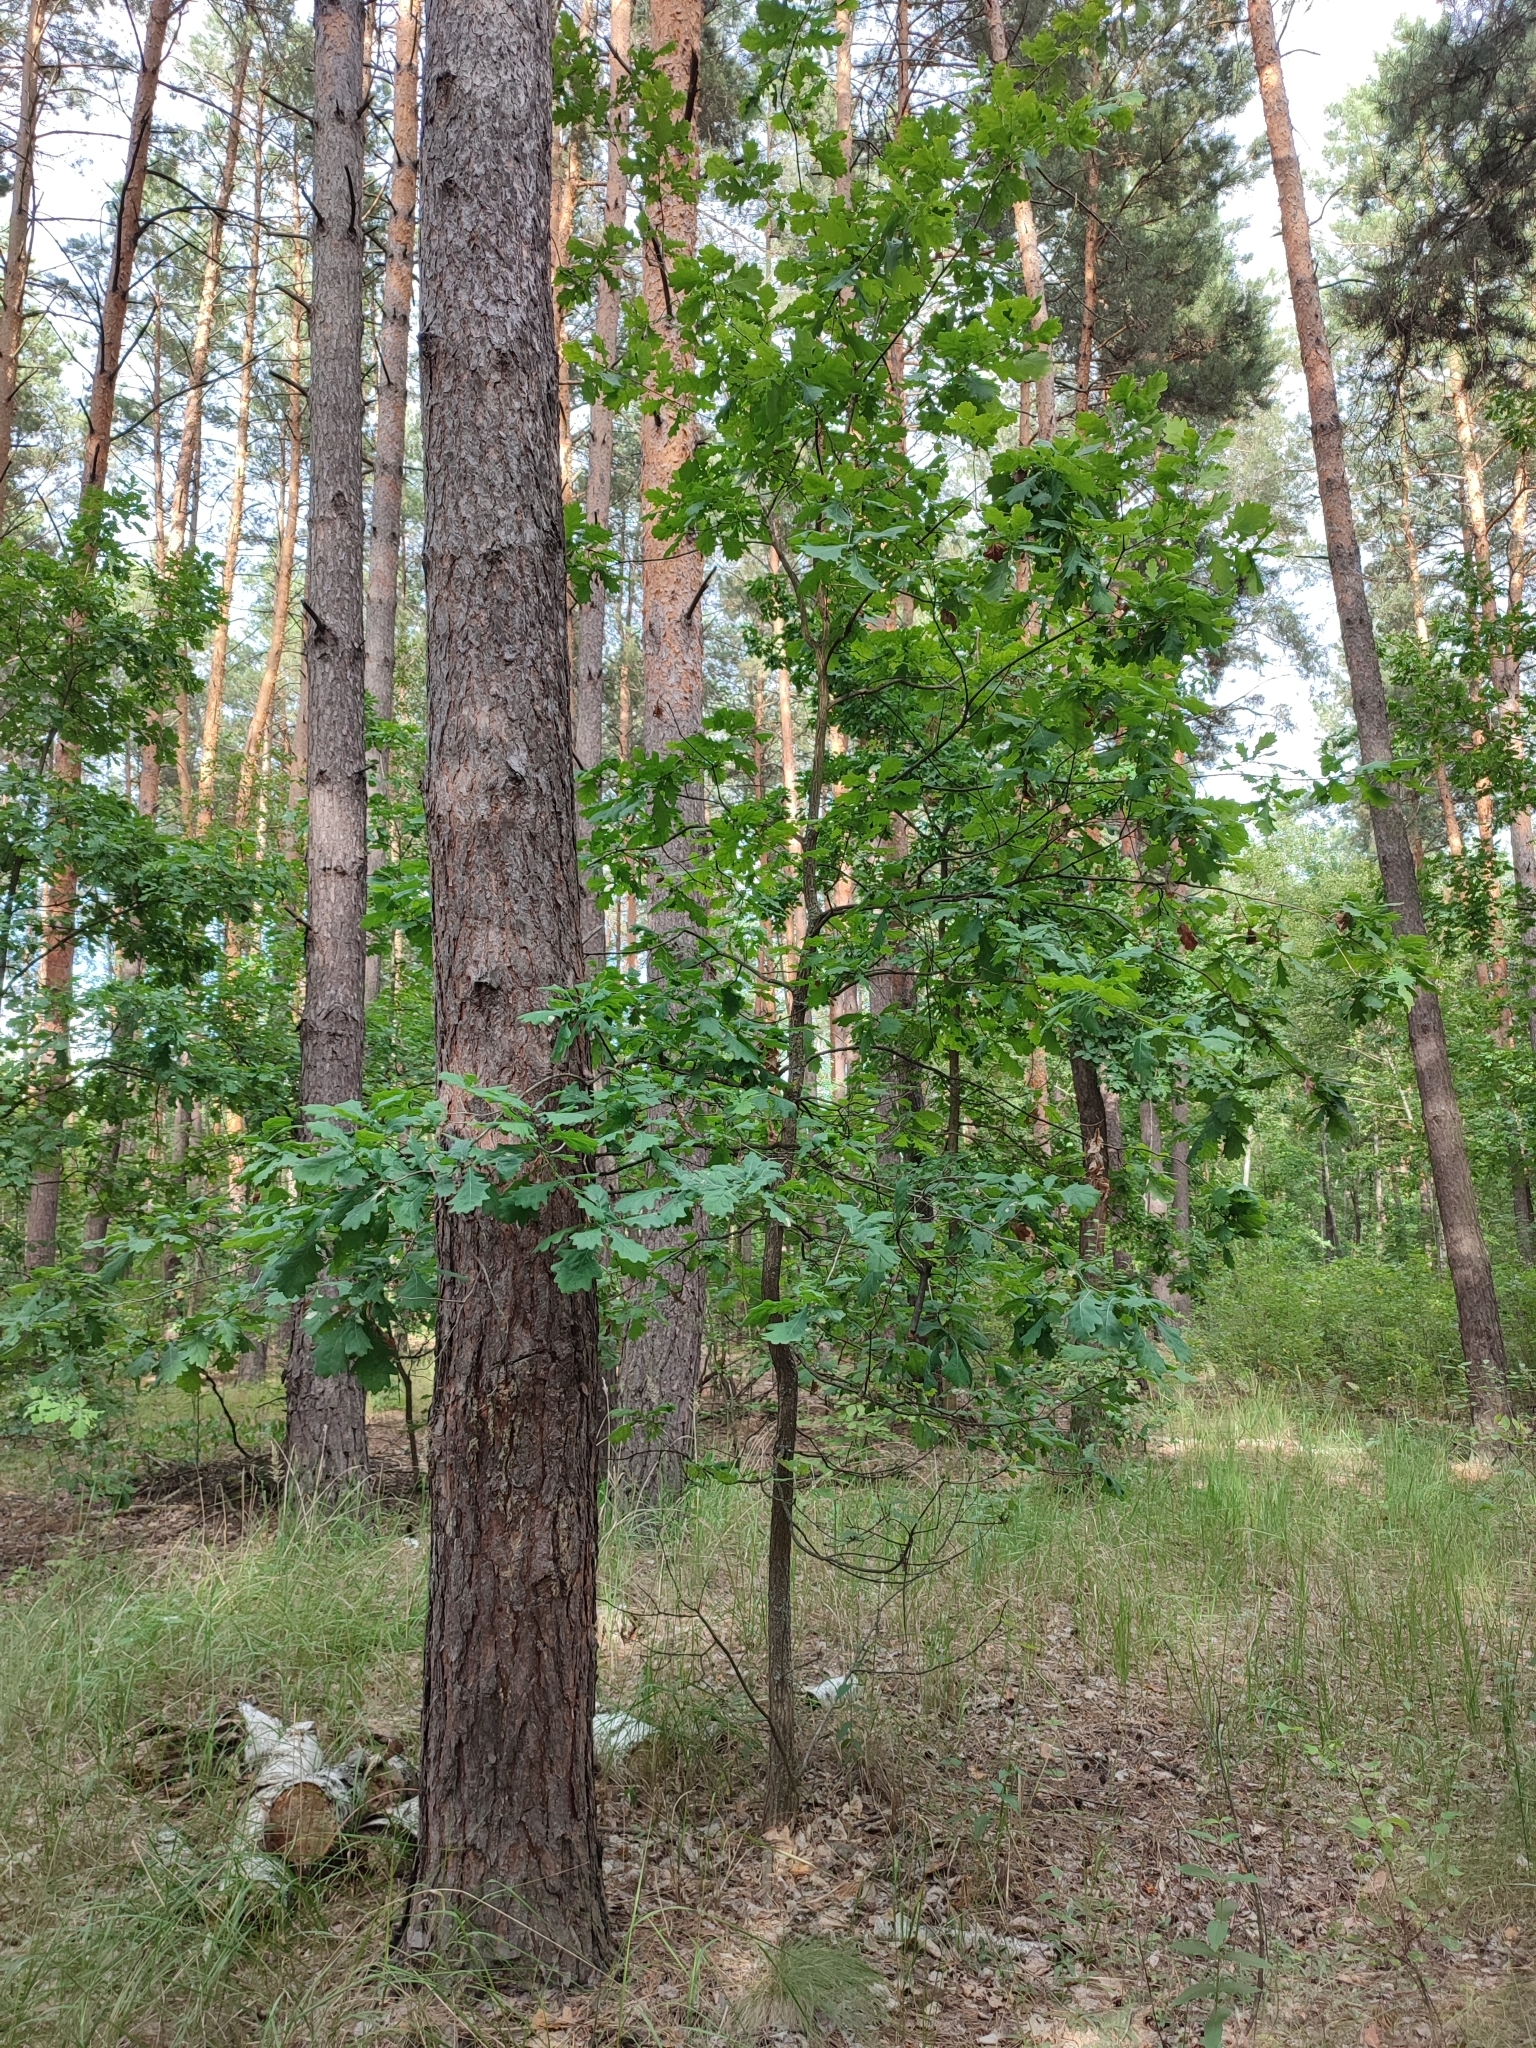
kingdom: Plantae
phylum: Tracheophyta
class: Magnoliopsida
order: Fagales
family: Fagaceae
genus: Quercus
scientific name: Quercus robur
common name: Pedunculate oak
